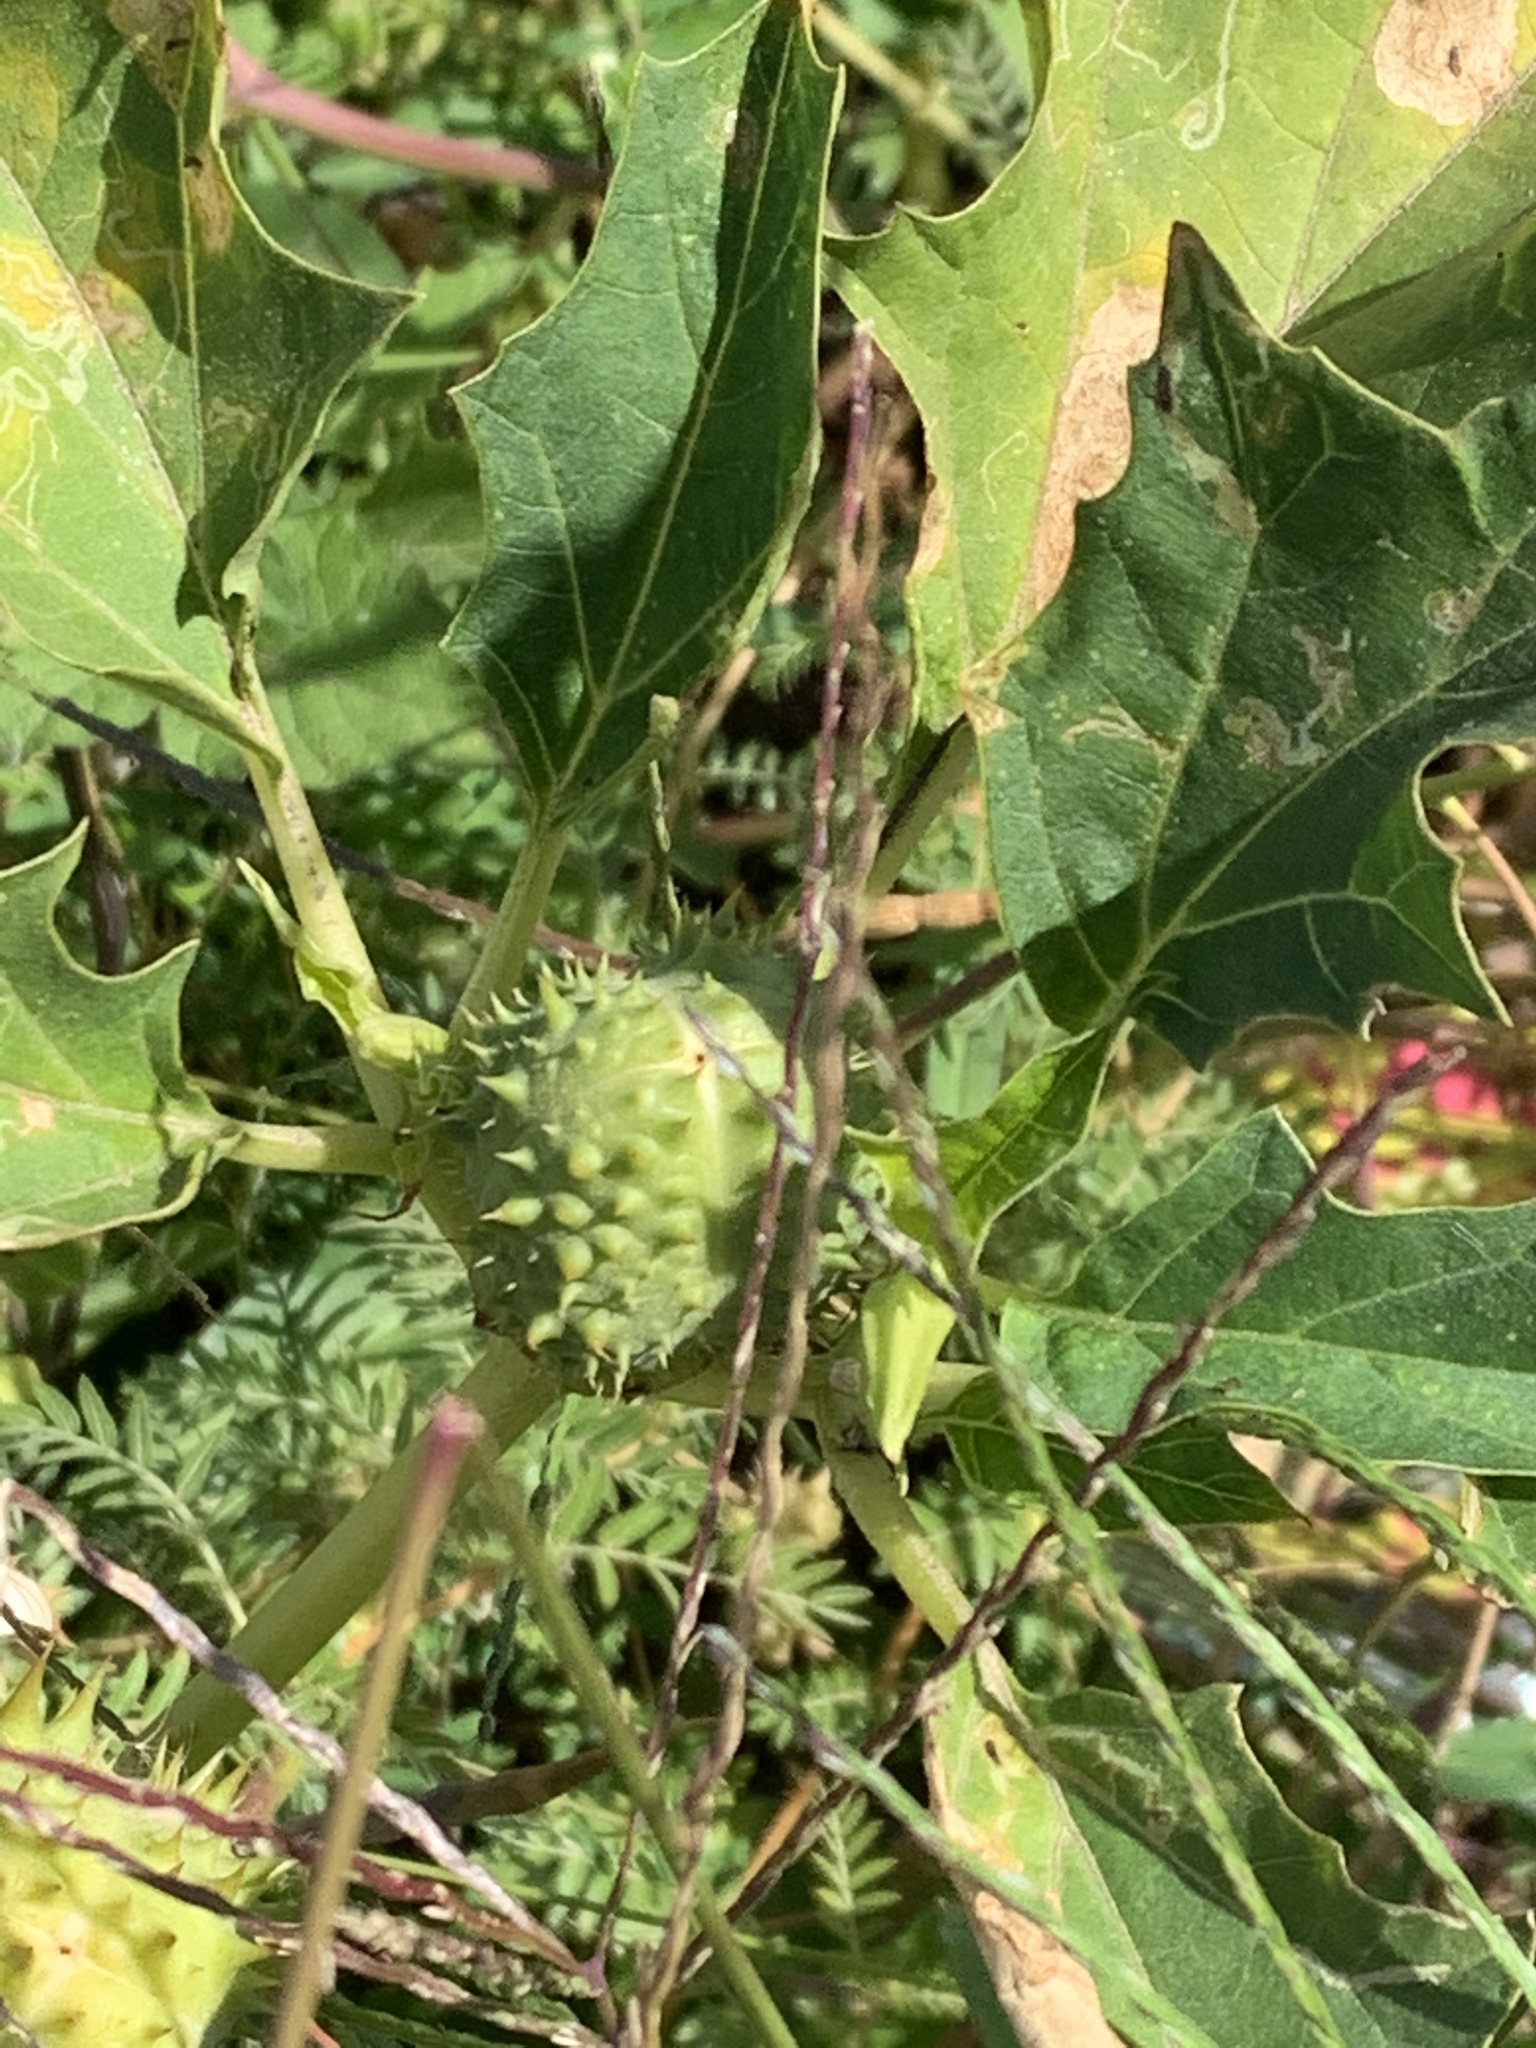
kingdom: Plantae
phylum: Tracheophyta
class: Magnoliopsida
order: Solanales
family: Solanaceae
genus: Datura
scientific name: Datura stramonium
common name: Thorn-apple
